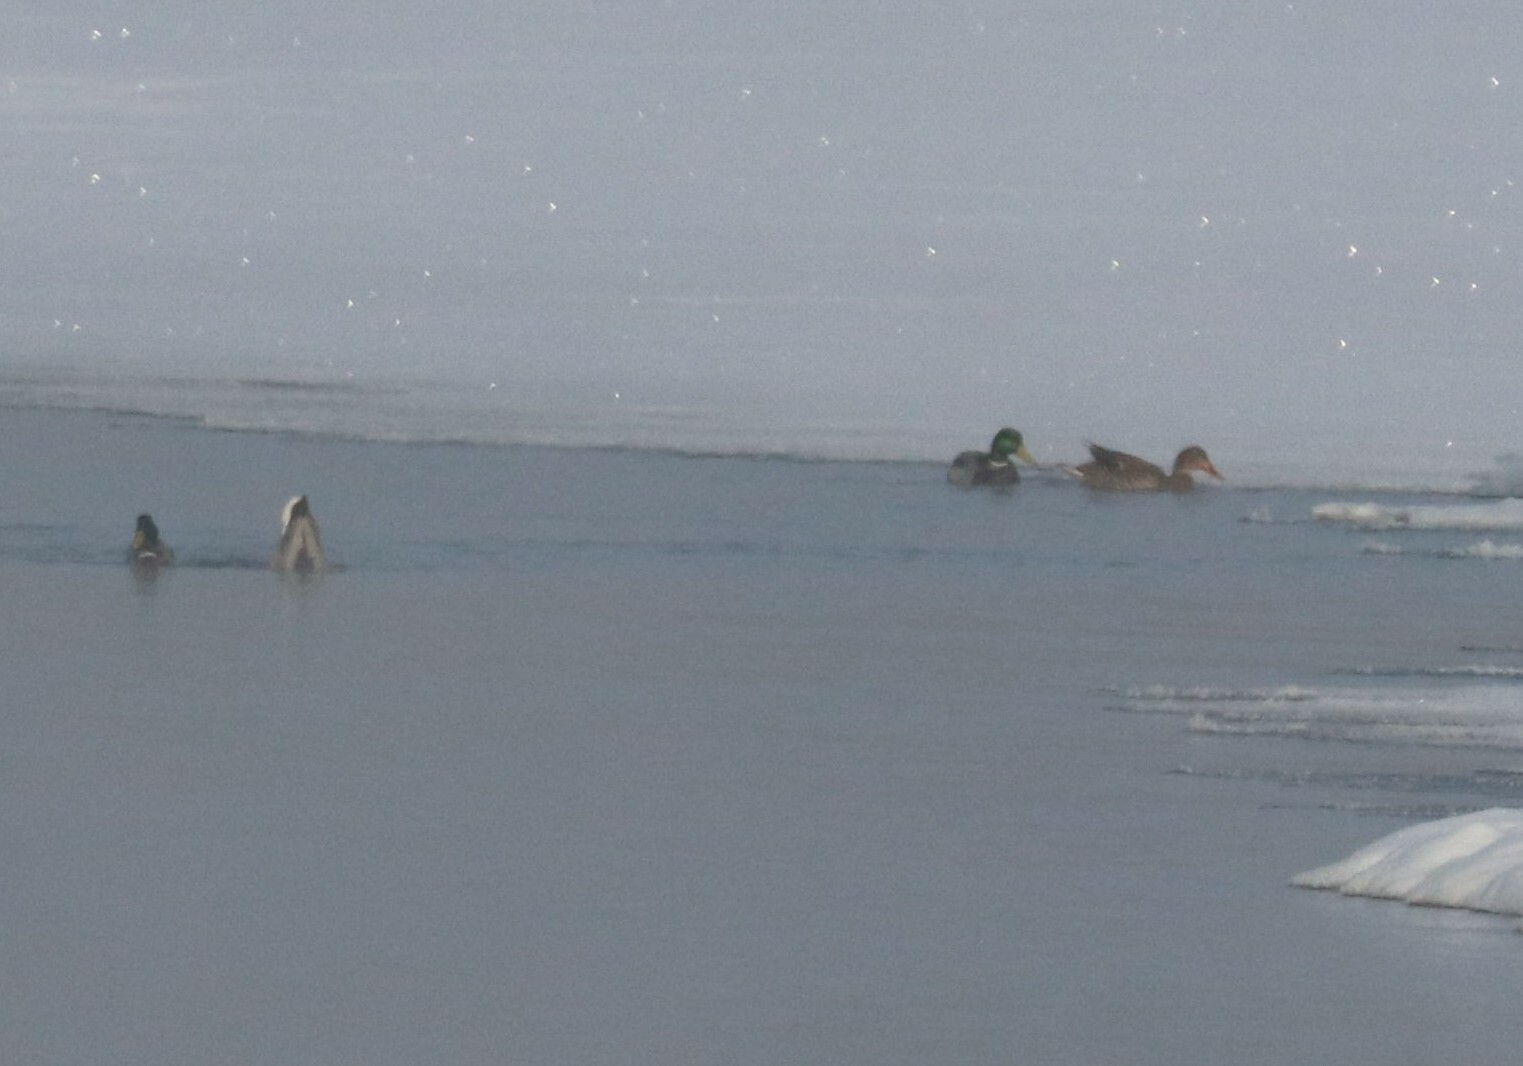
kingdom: Animalia
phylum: Chordata
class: Aves
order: Anseriformes
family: Anatidae
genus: Anas
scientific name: Anas platyrhynchos
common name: Mallard
